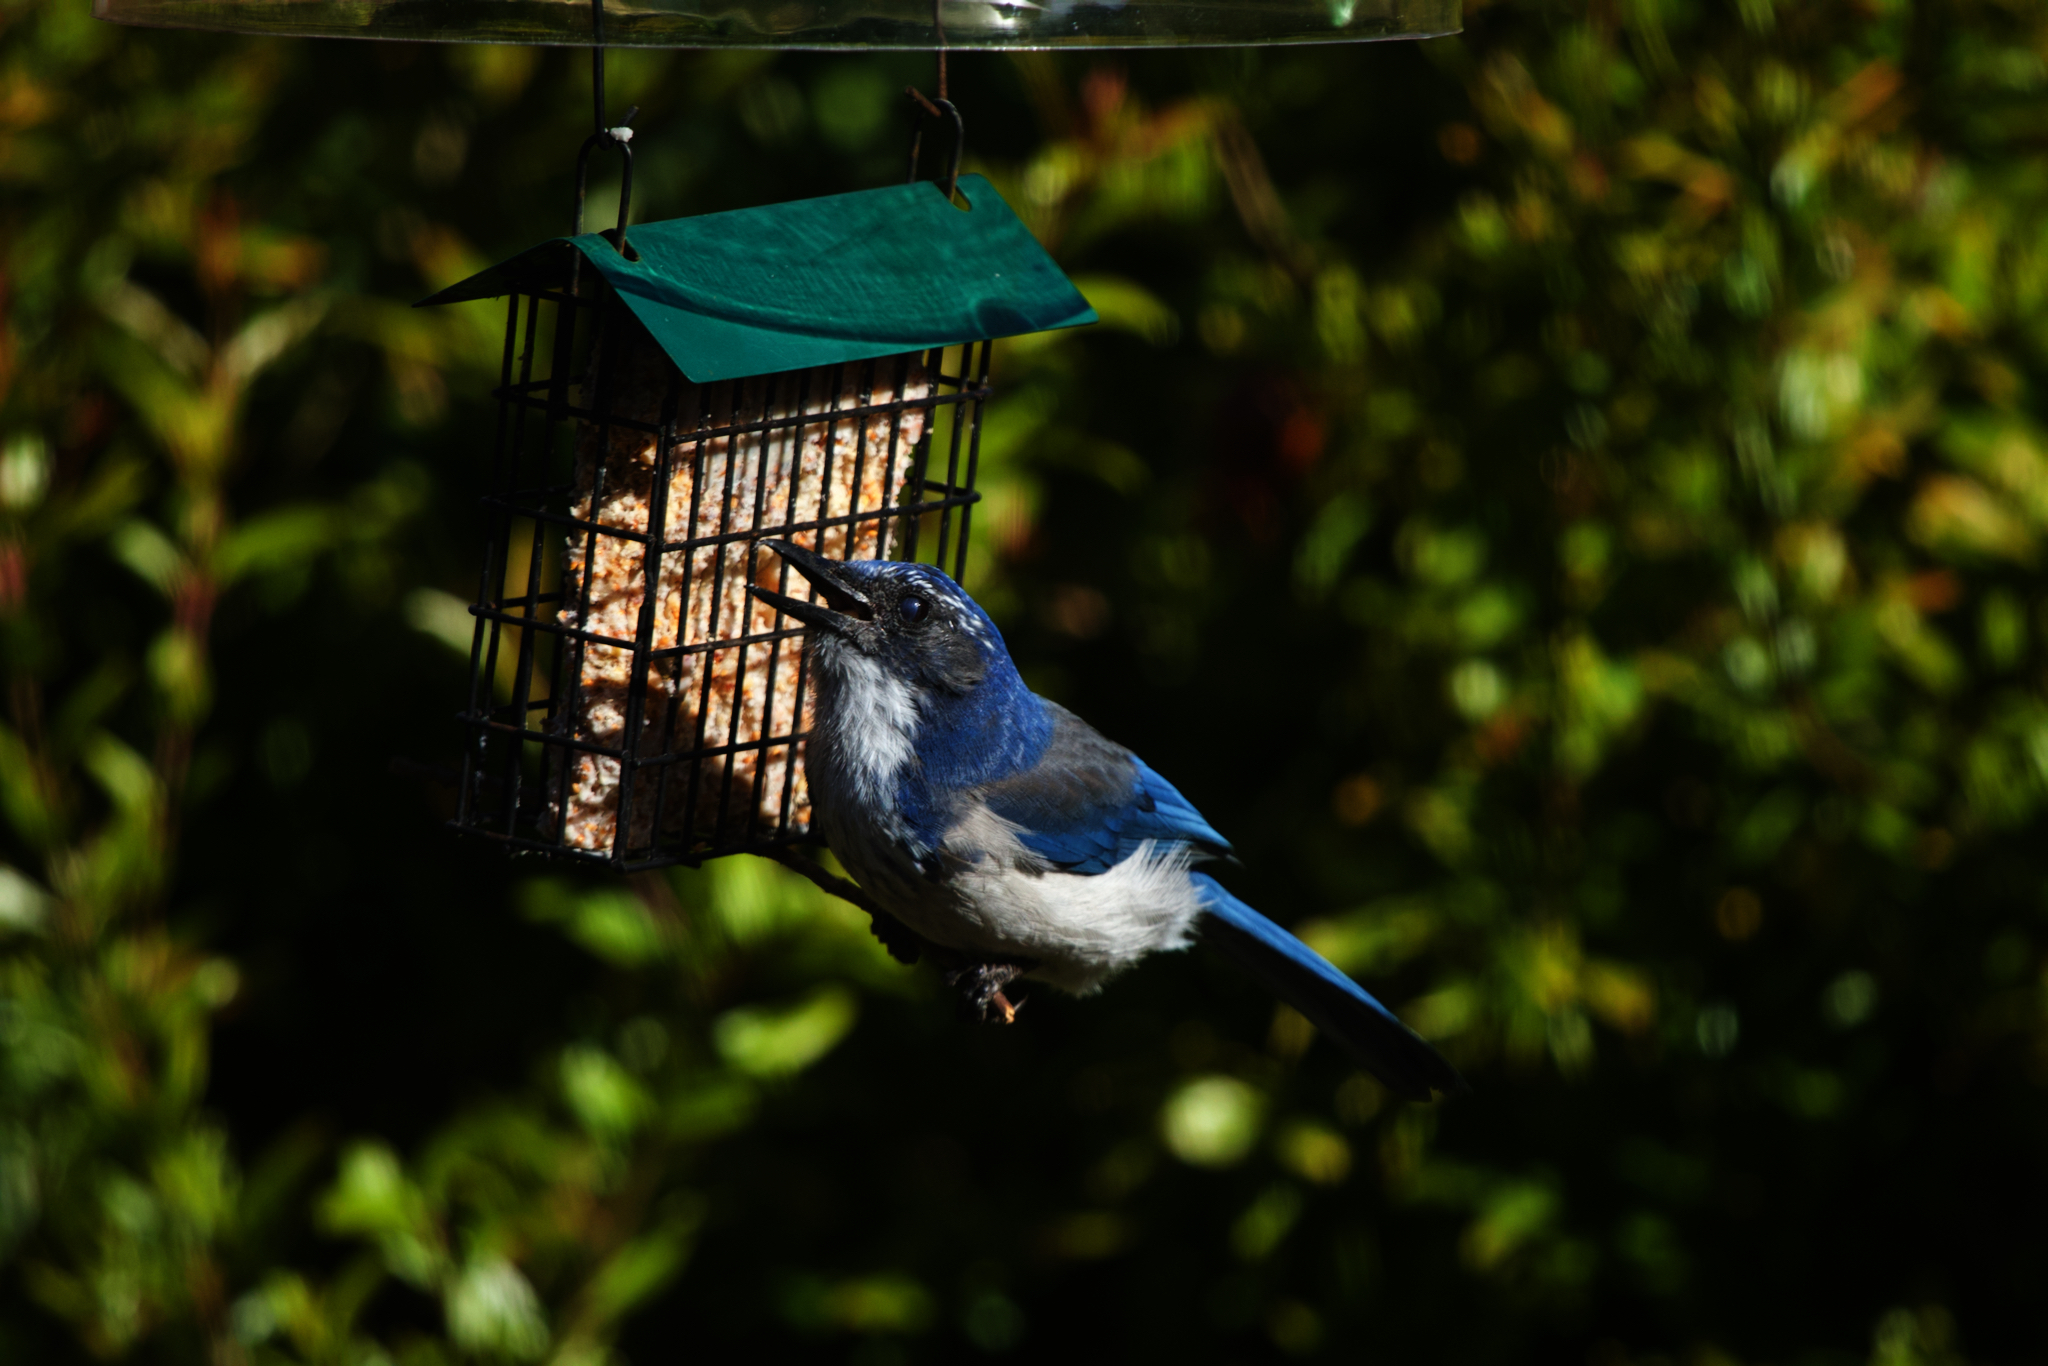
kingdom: Animalia
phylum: Chordata
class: Aves
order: Passeriformes
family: Corvidae
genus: Aphelocoma
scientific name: Aphelocoma californica
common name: California scrub-jay
